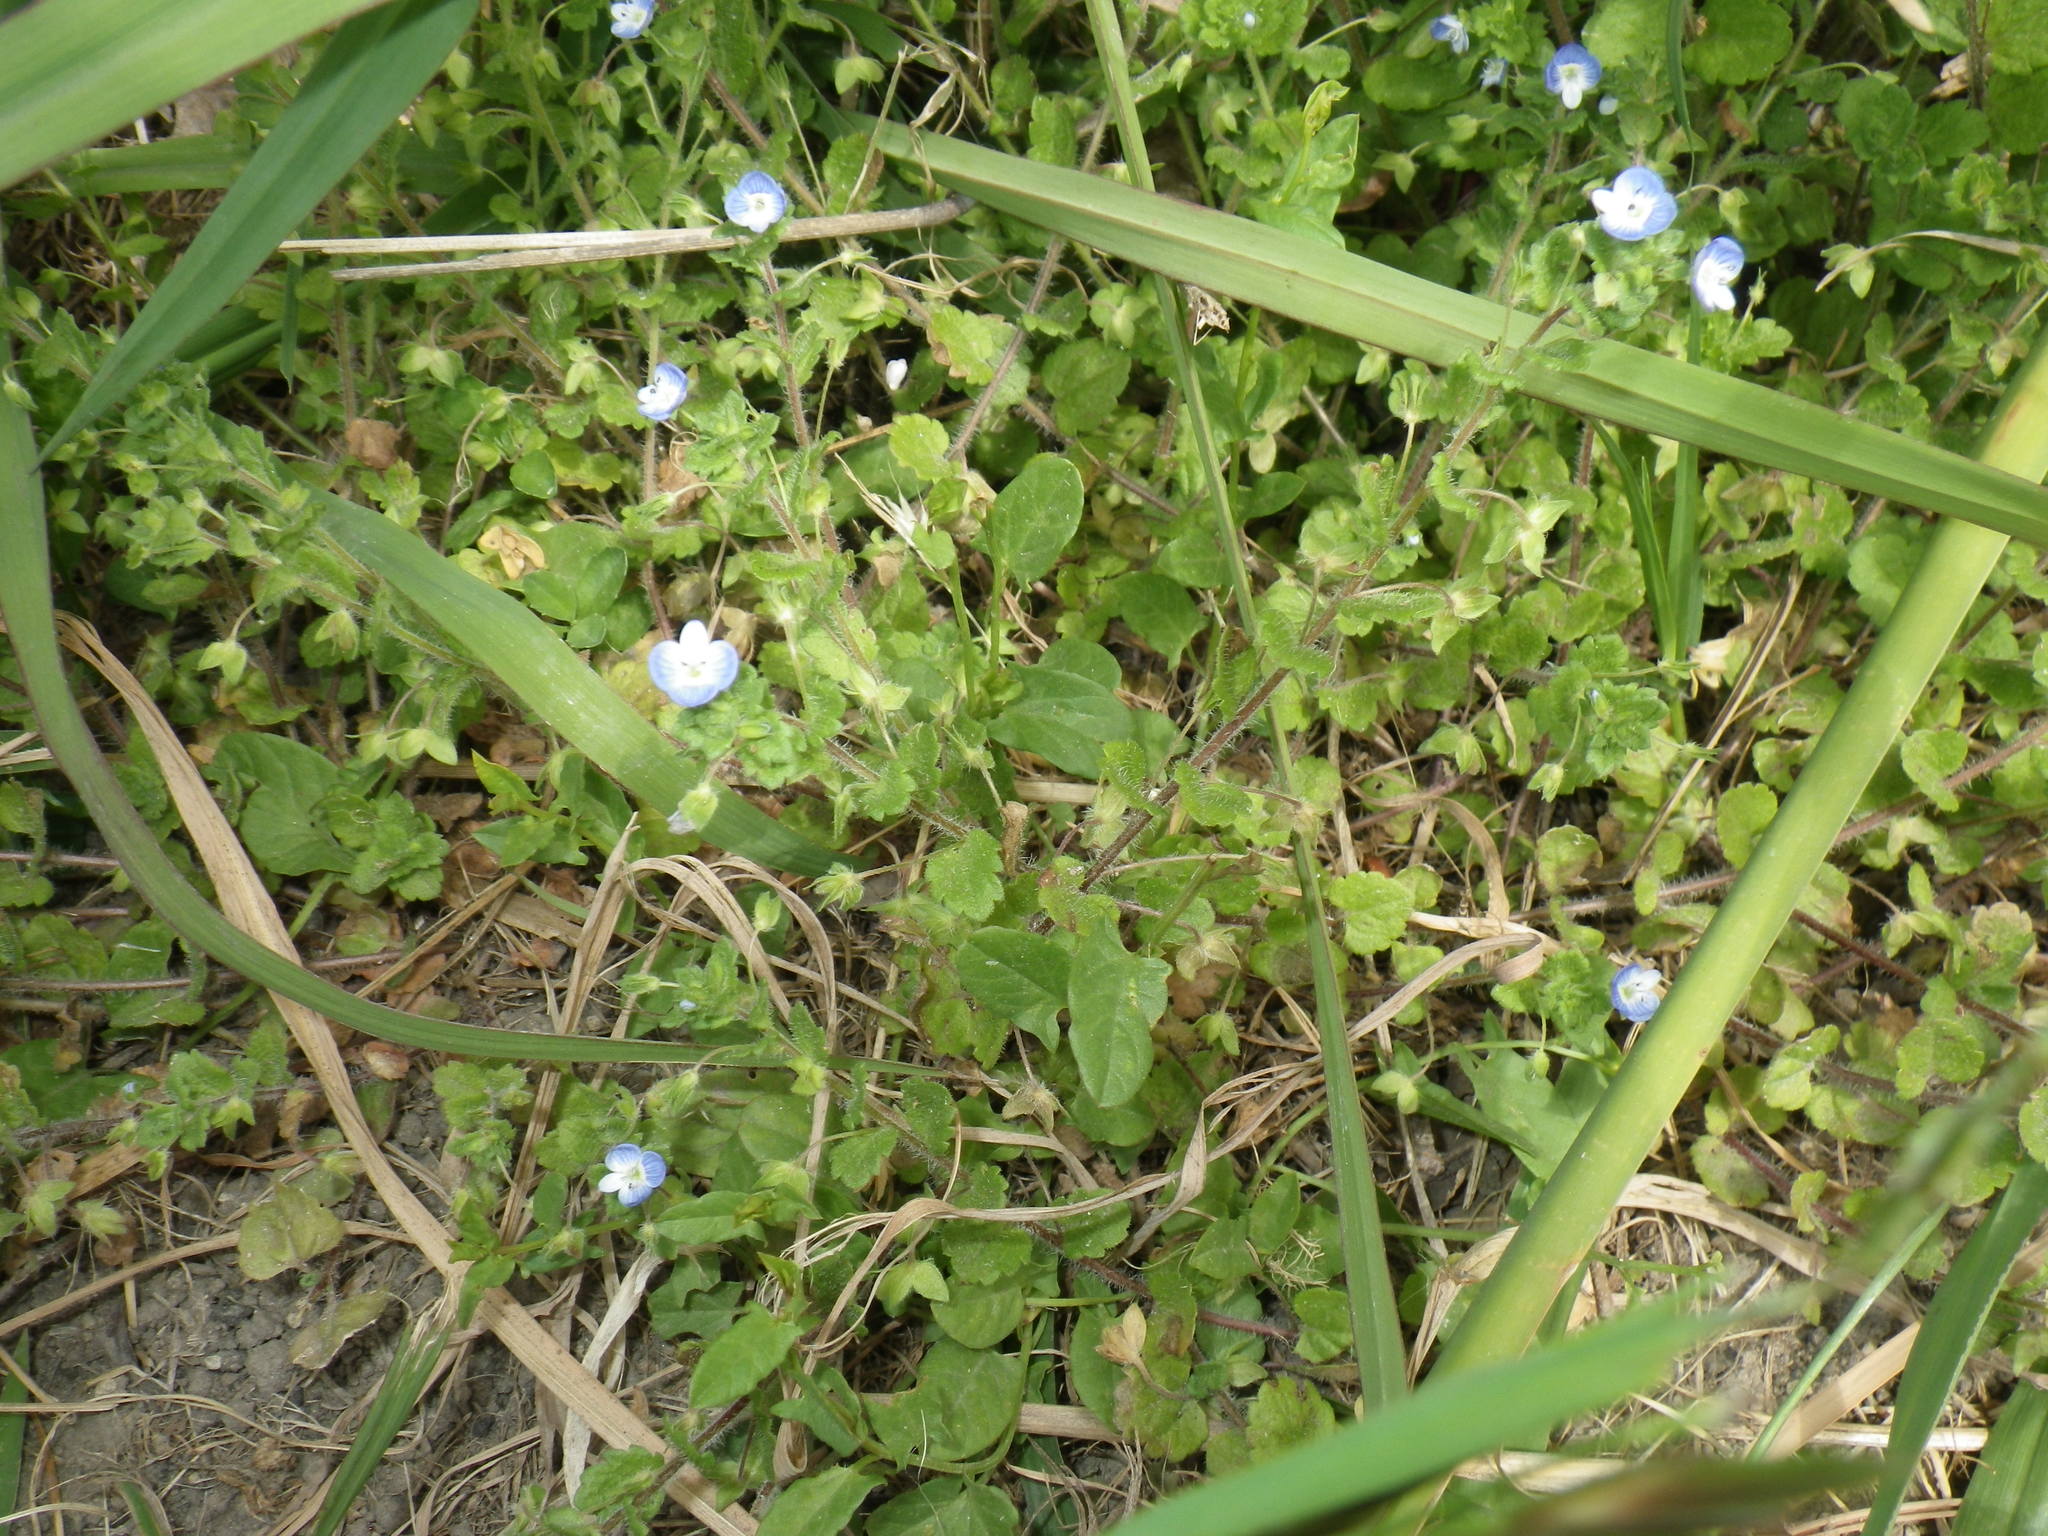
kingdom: Plantae
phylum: Tracheophyta
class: Magnoliopsida
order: Lamiales
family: Plantaginaceae
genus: Veronica
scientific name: Veronica persica
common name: Common field-speedwell
